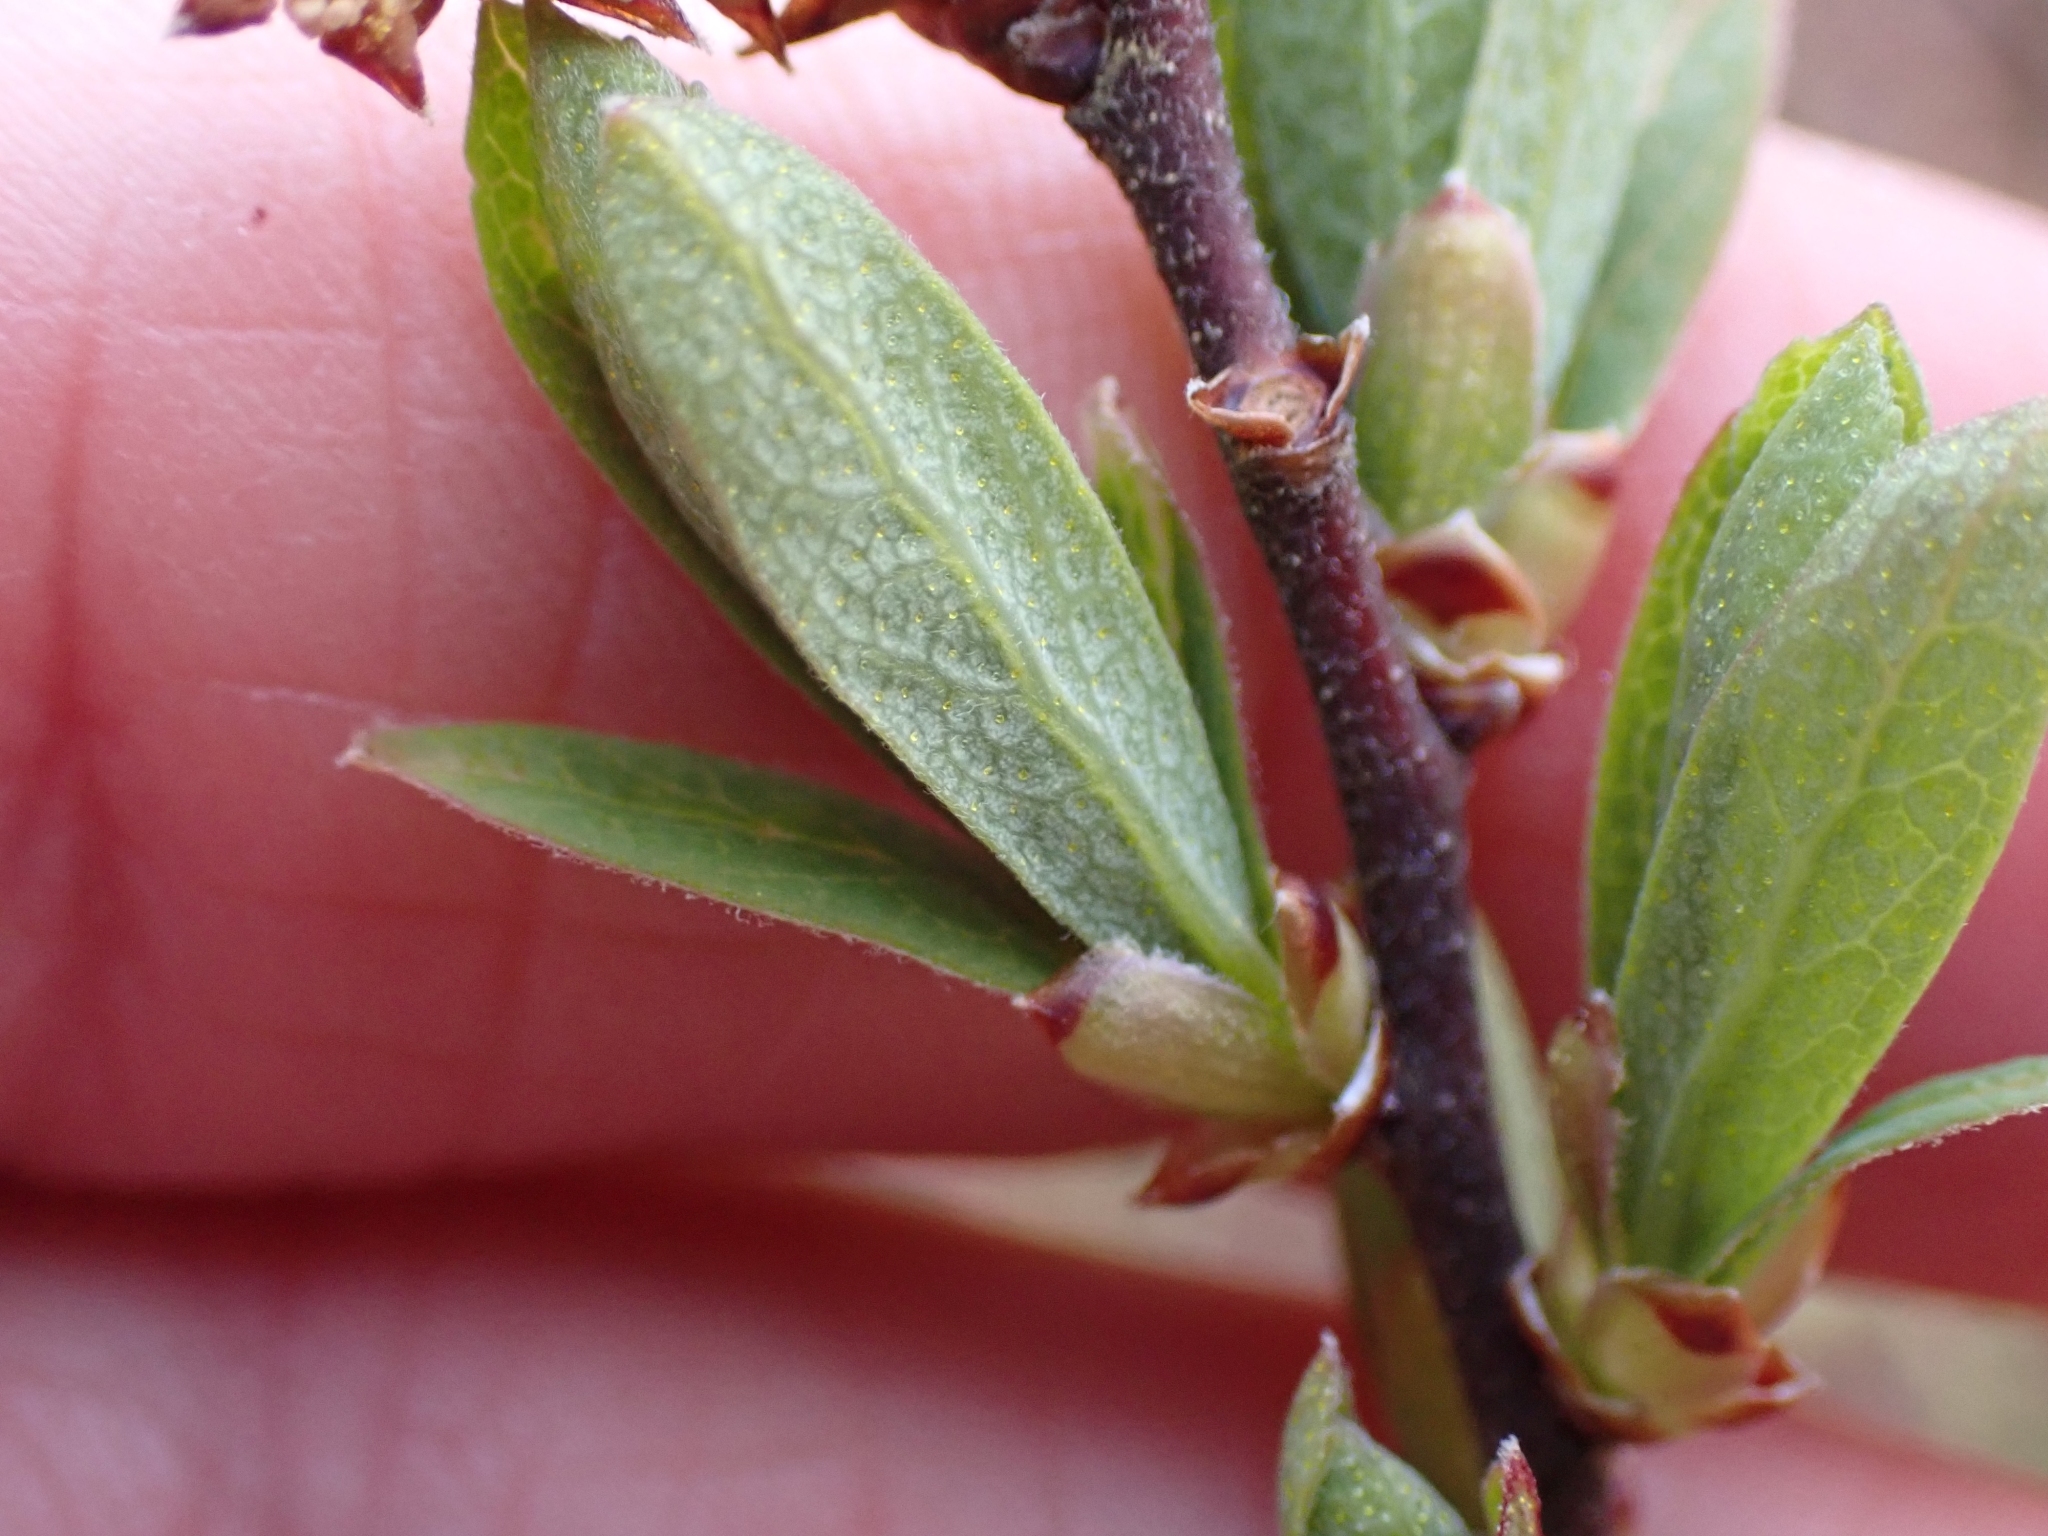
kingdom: Plantae
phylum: Tracheophyta
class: Magnoliopsida
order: Fagales
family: Myricaceae
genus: Myrica
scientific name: Myrica gale
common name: Sweet gale
